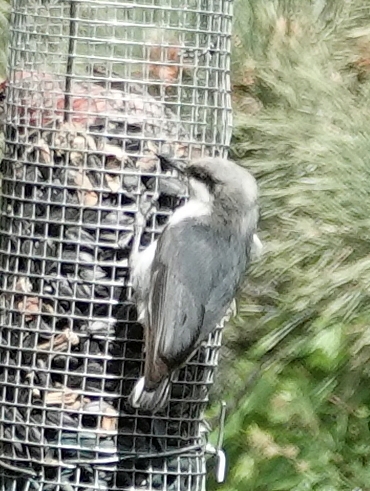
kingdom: Animalia
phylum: Chordata
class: Aves
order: Passeriformes
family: Sittidae
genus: Sitta
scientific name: Sitta pygmaea
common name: Pygmy nuthatch
